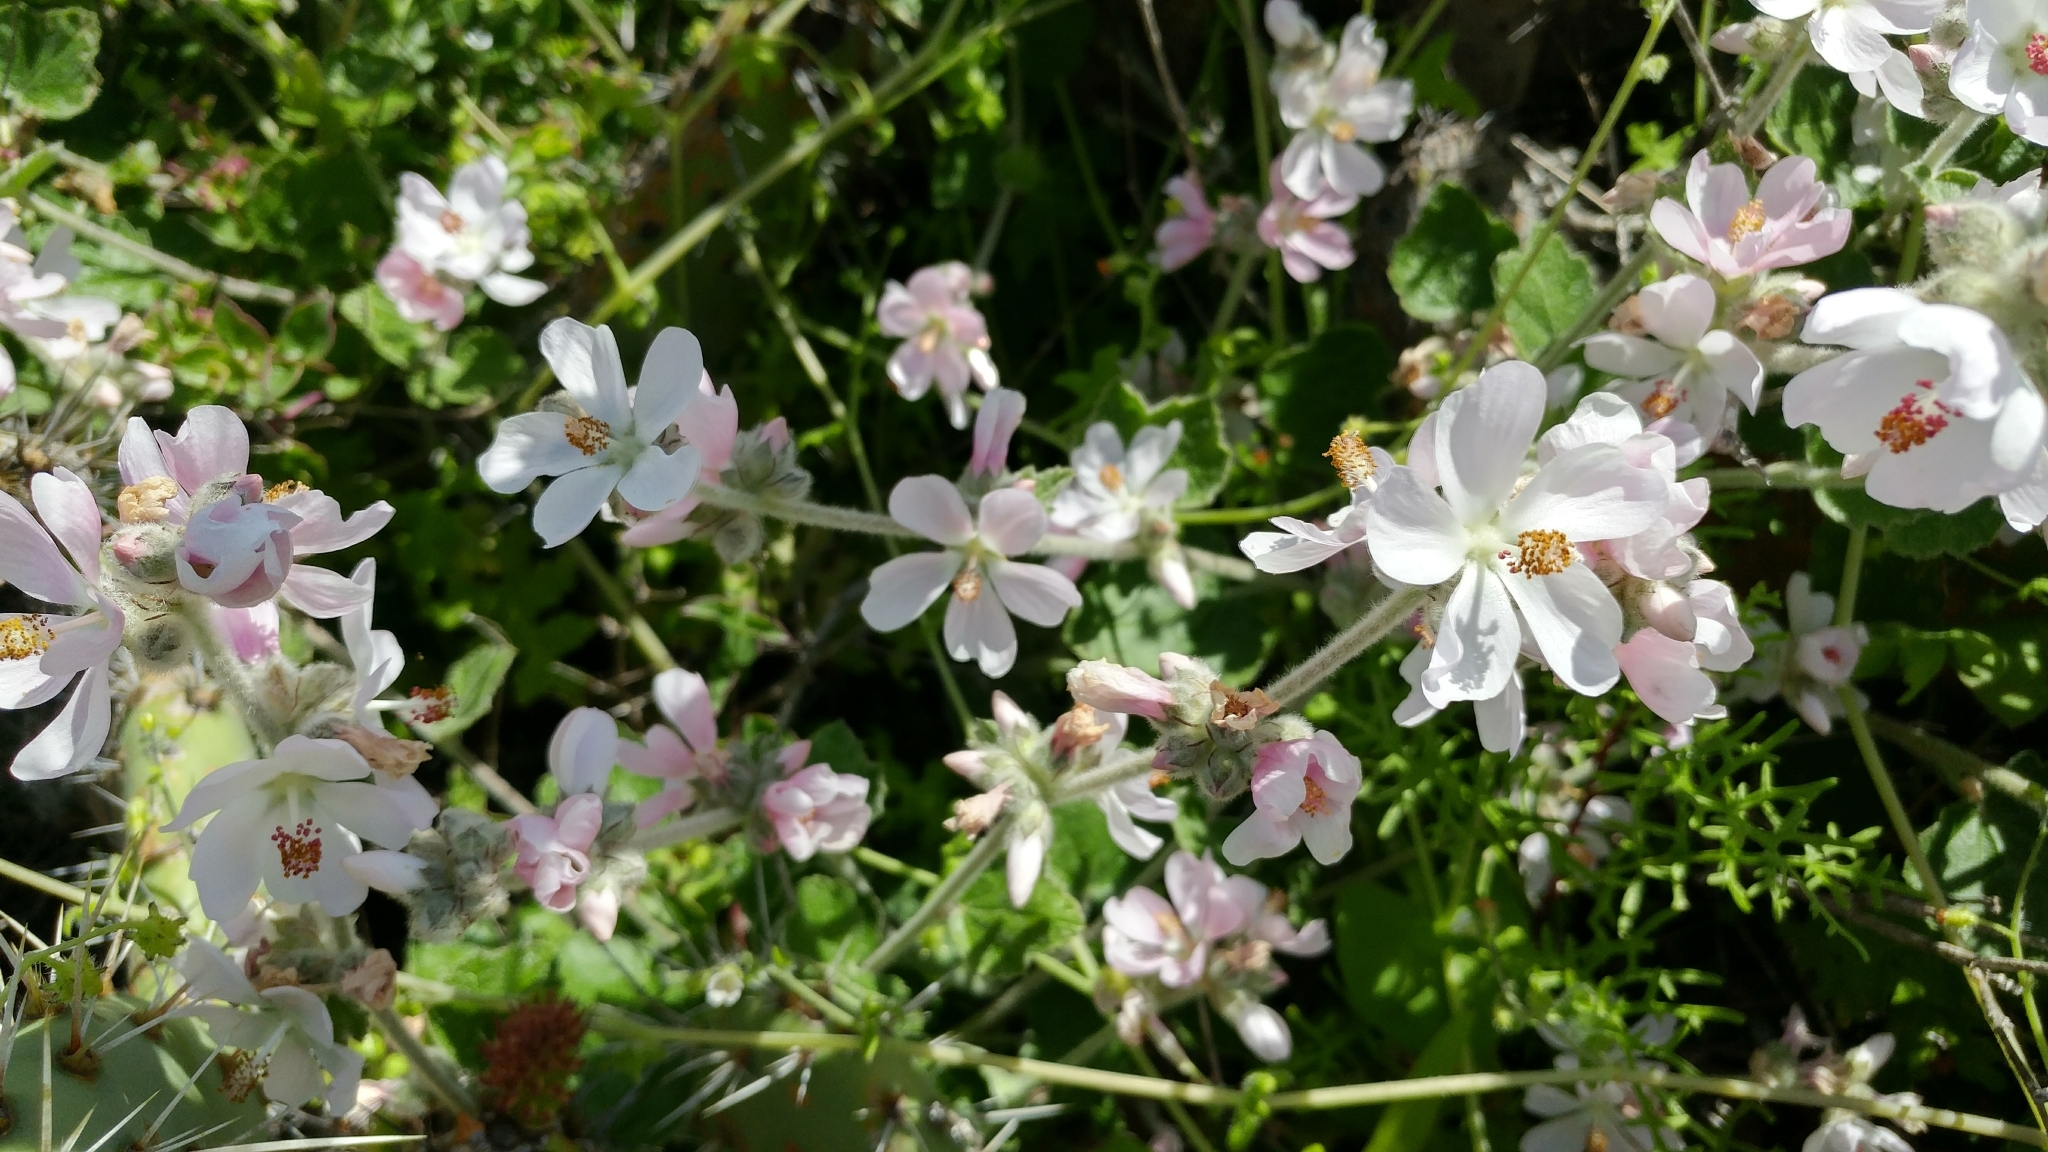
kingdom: Plantae
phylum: Tracheophyta
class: Magnoliopsida
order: Malvales
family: Malvaceae
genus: Malacothamnus
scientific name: Malacothamnus clementinus
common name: San clemente island bush-mallow
